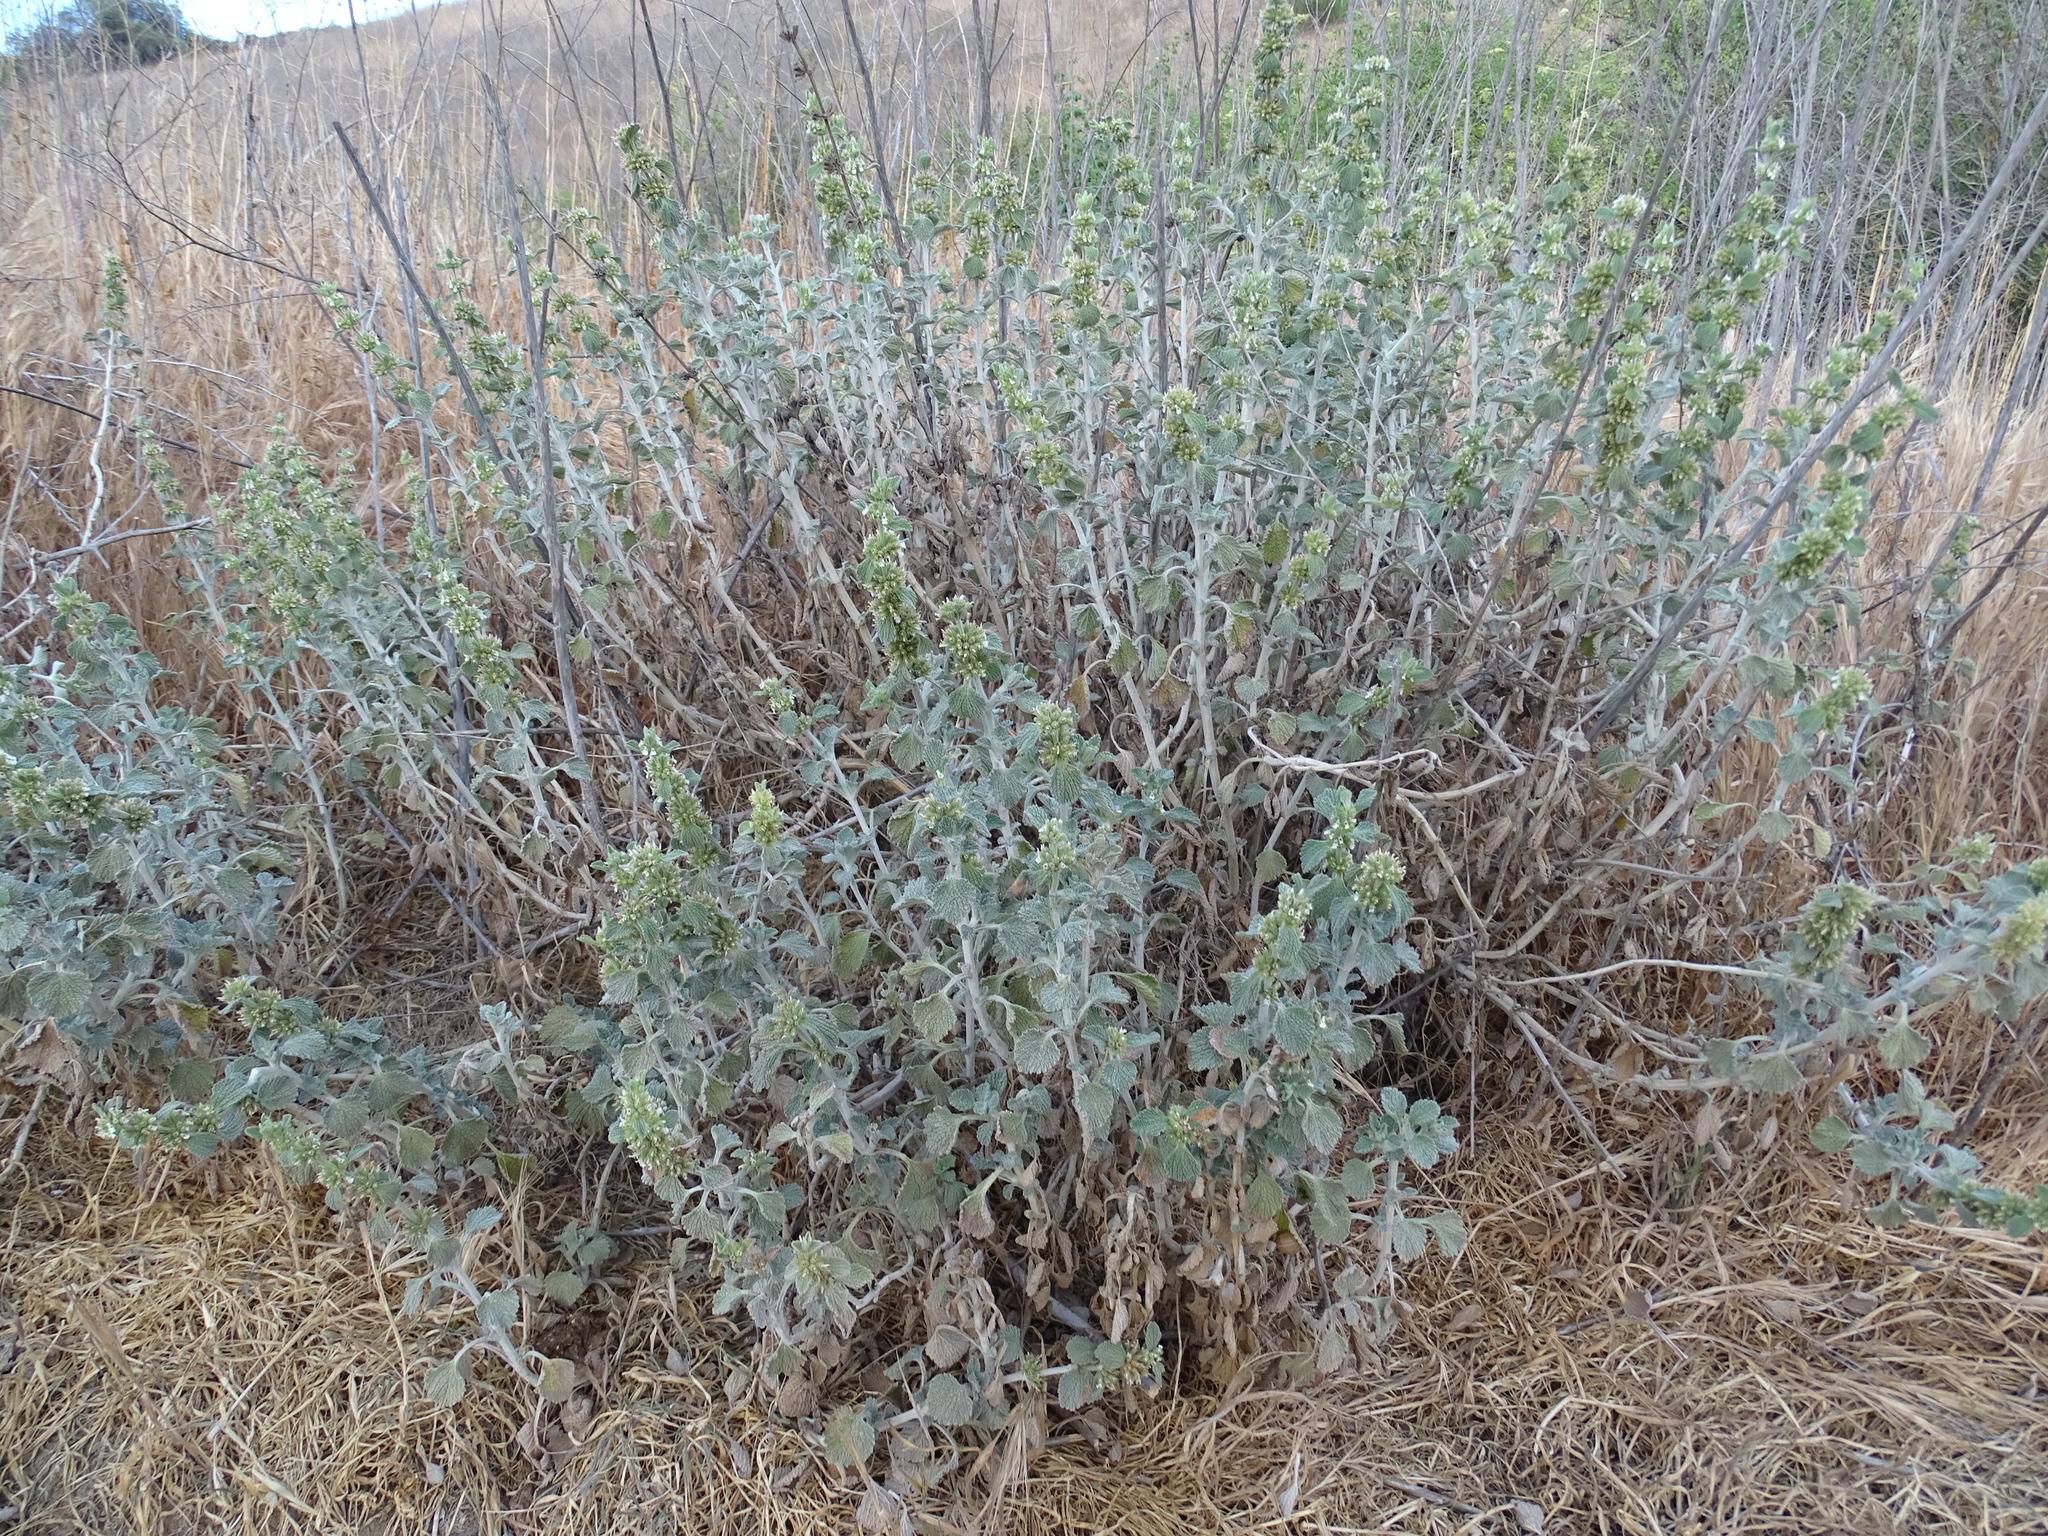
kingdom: Plantae
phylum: Tracheophyta
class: Magnoliopsida
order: Lamiales
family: Lamiaceae
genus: Marrubium
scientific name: Marrubium vulgare
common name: Horehound
